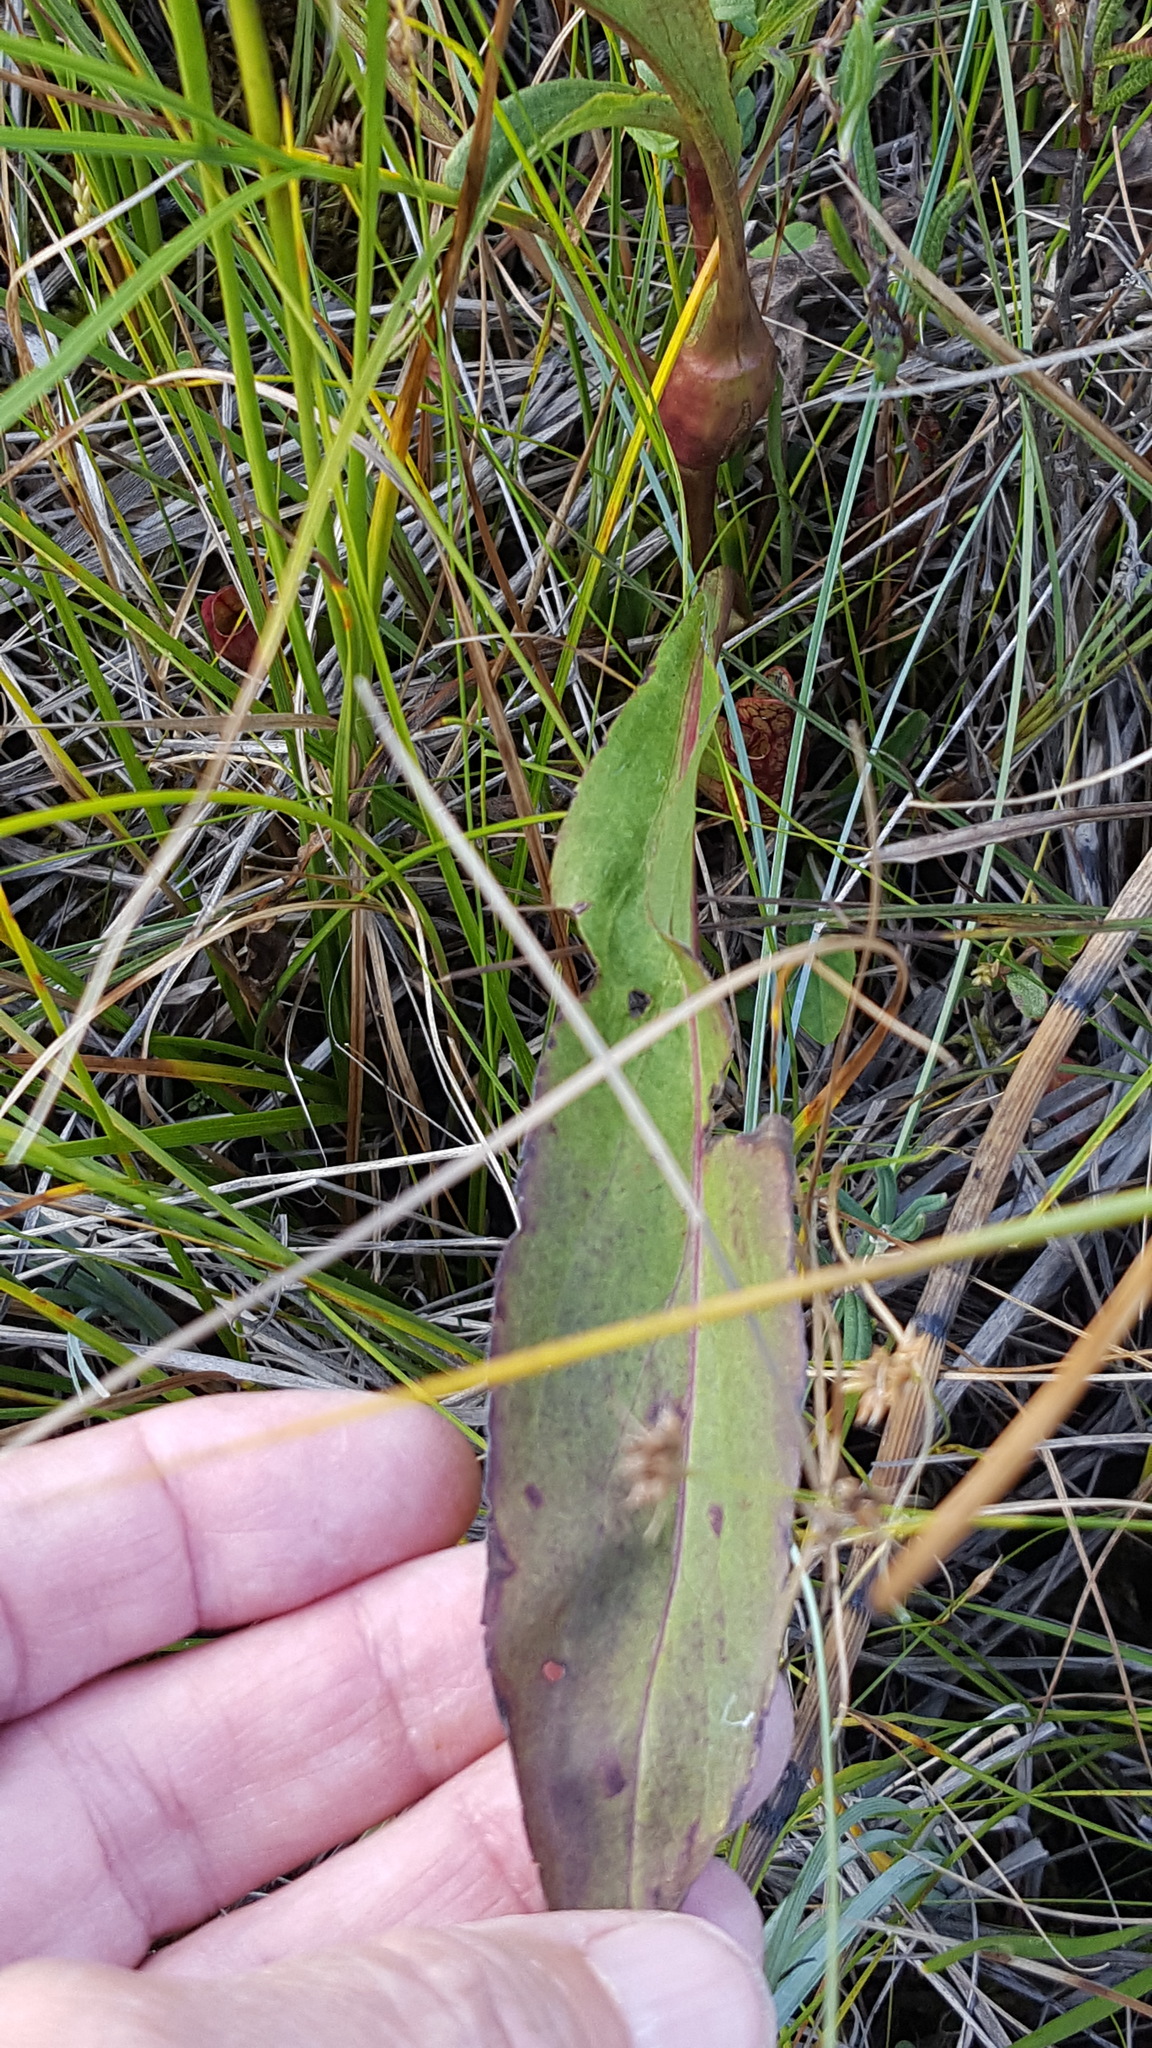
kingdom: Plantae
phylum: Tracheophyta
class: Magnoliopsida
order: Asterales
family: Asteraceae
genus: Solidago
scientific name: Solidago uliginosa
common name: Bog goldenrod
